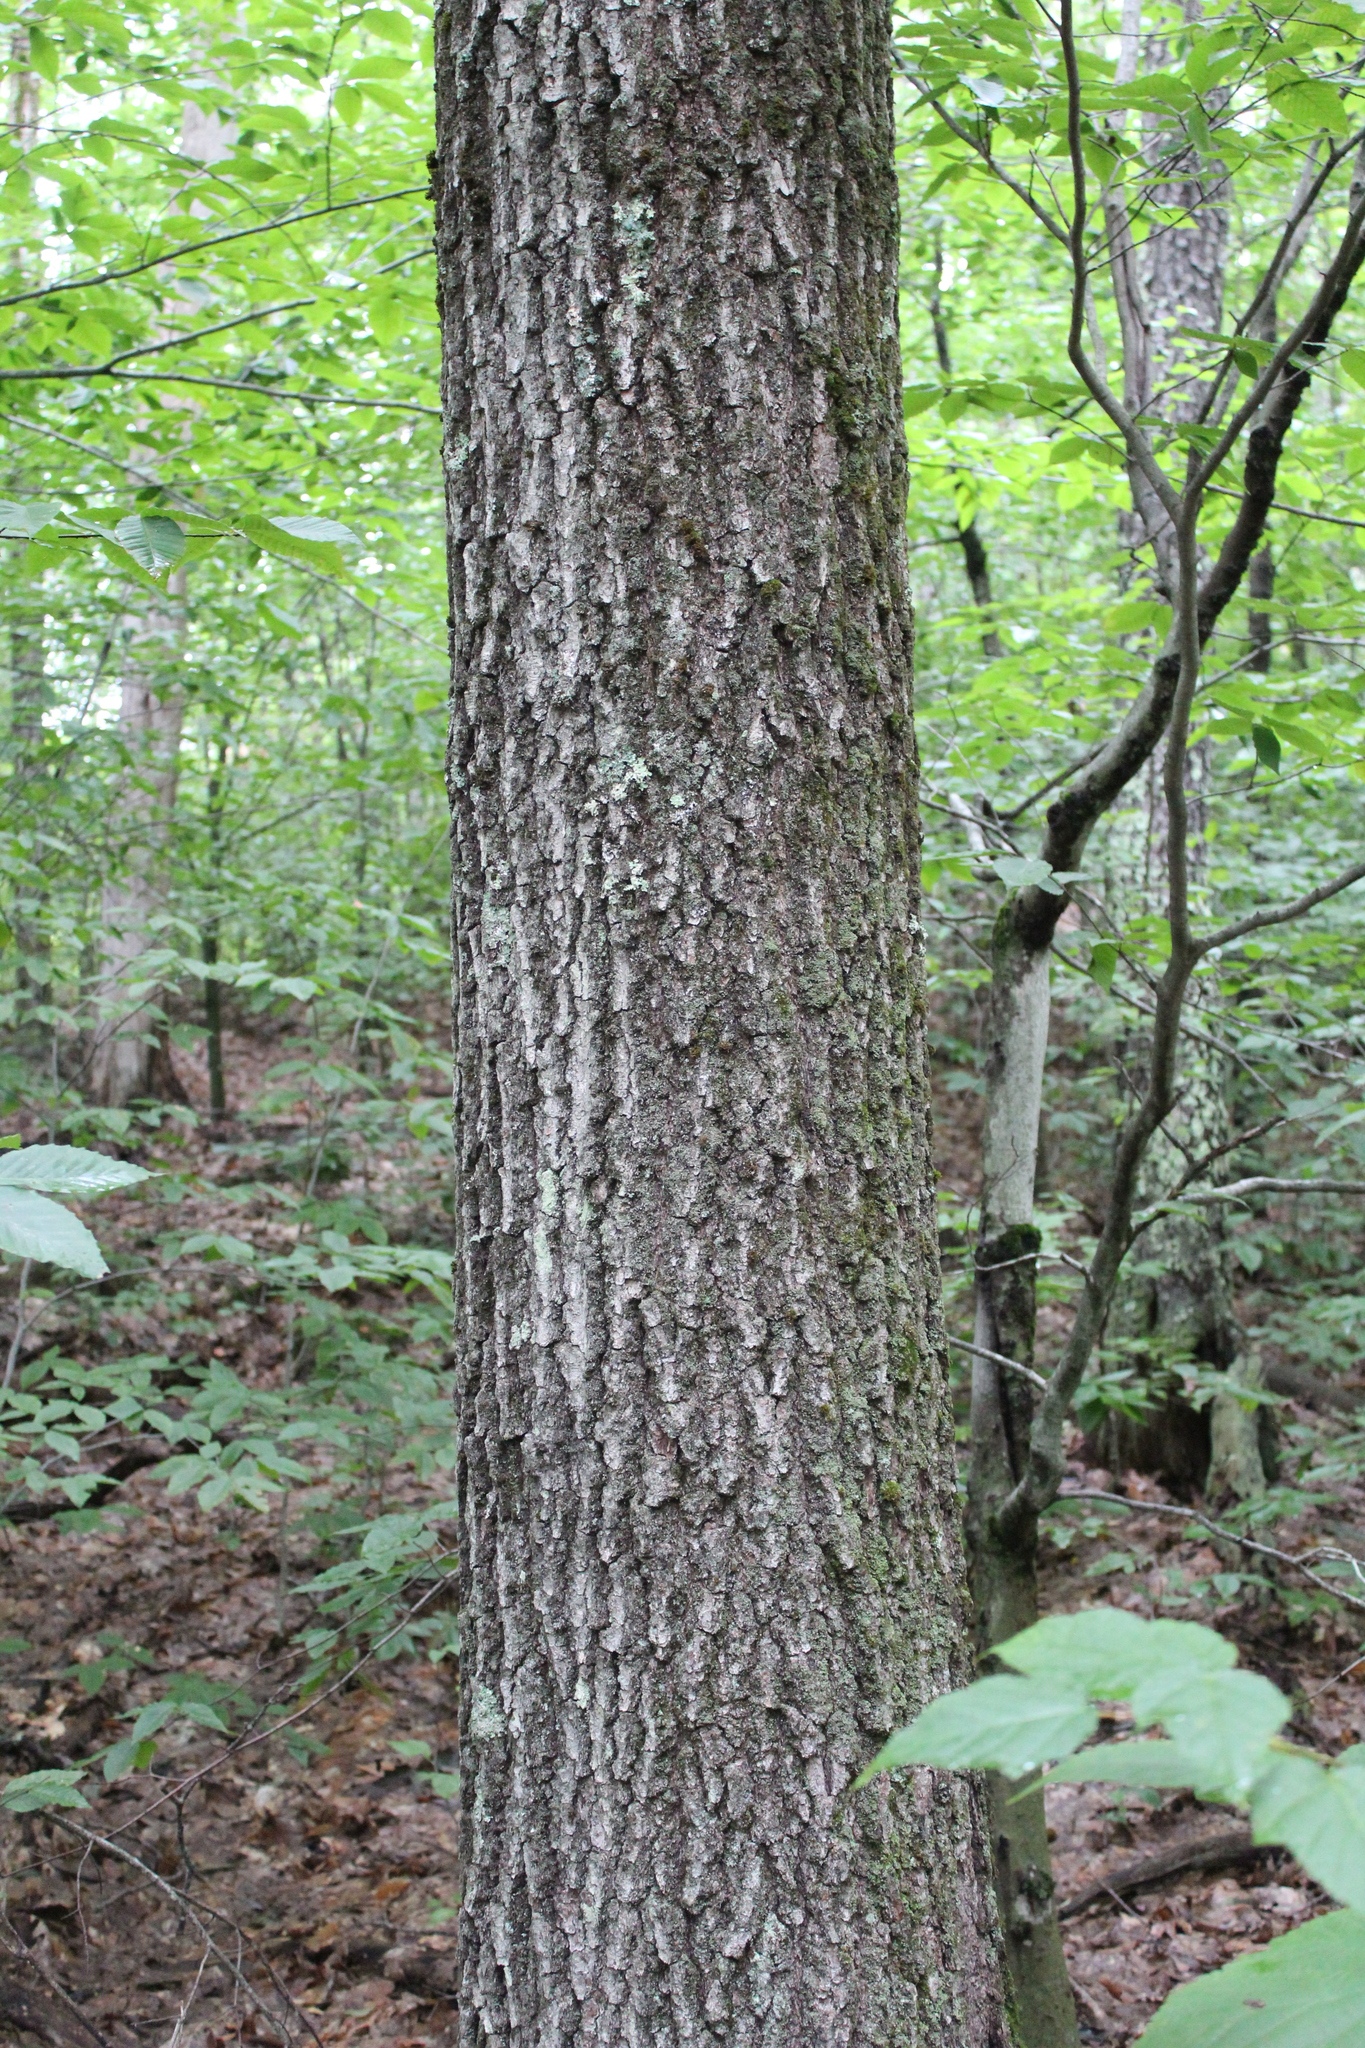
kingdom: Plantae
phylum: Tracheophyta
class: Magnoliopsida
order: Fagales
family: Fagaceae
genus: Quercus
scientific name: Quercus rubra
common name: Red oak
